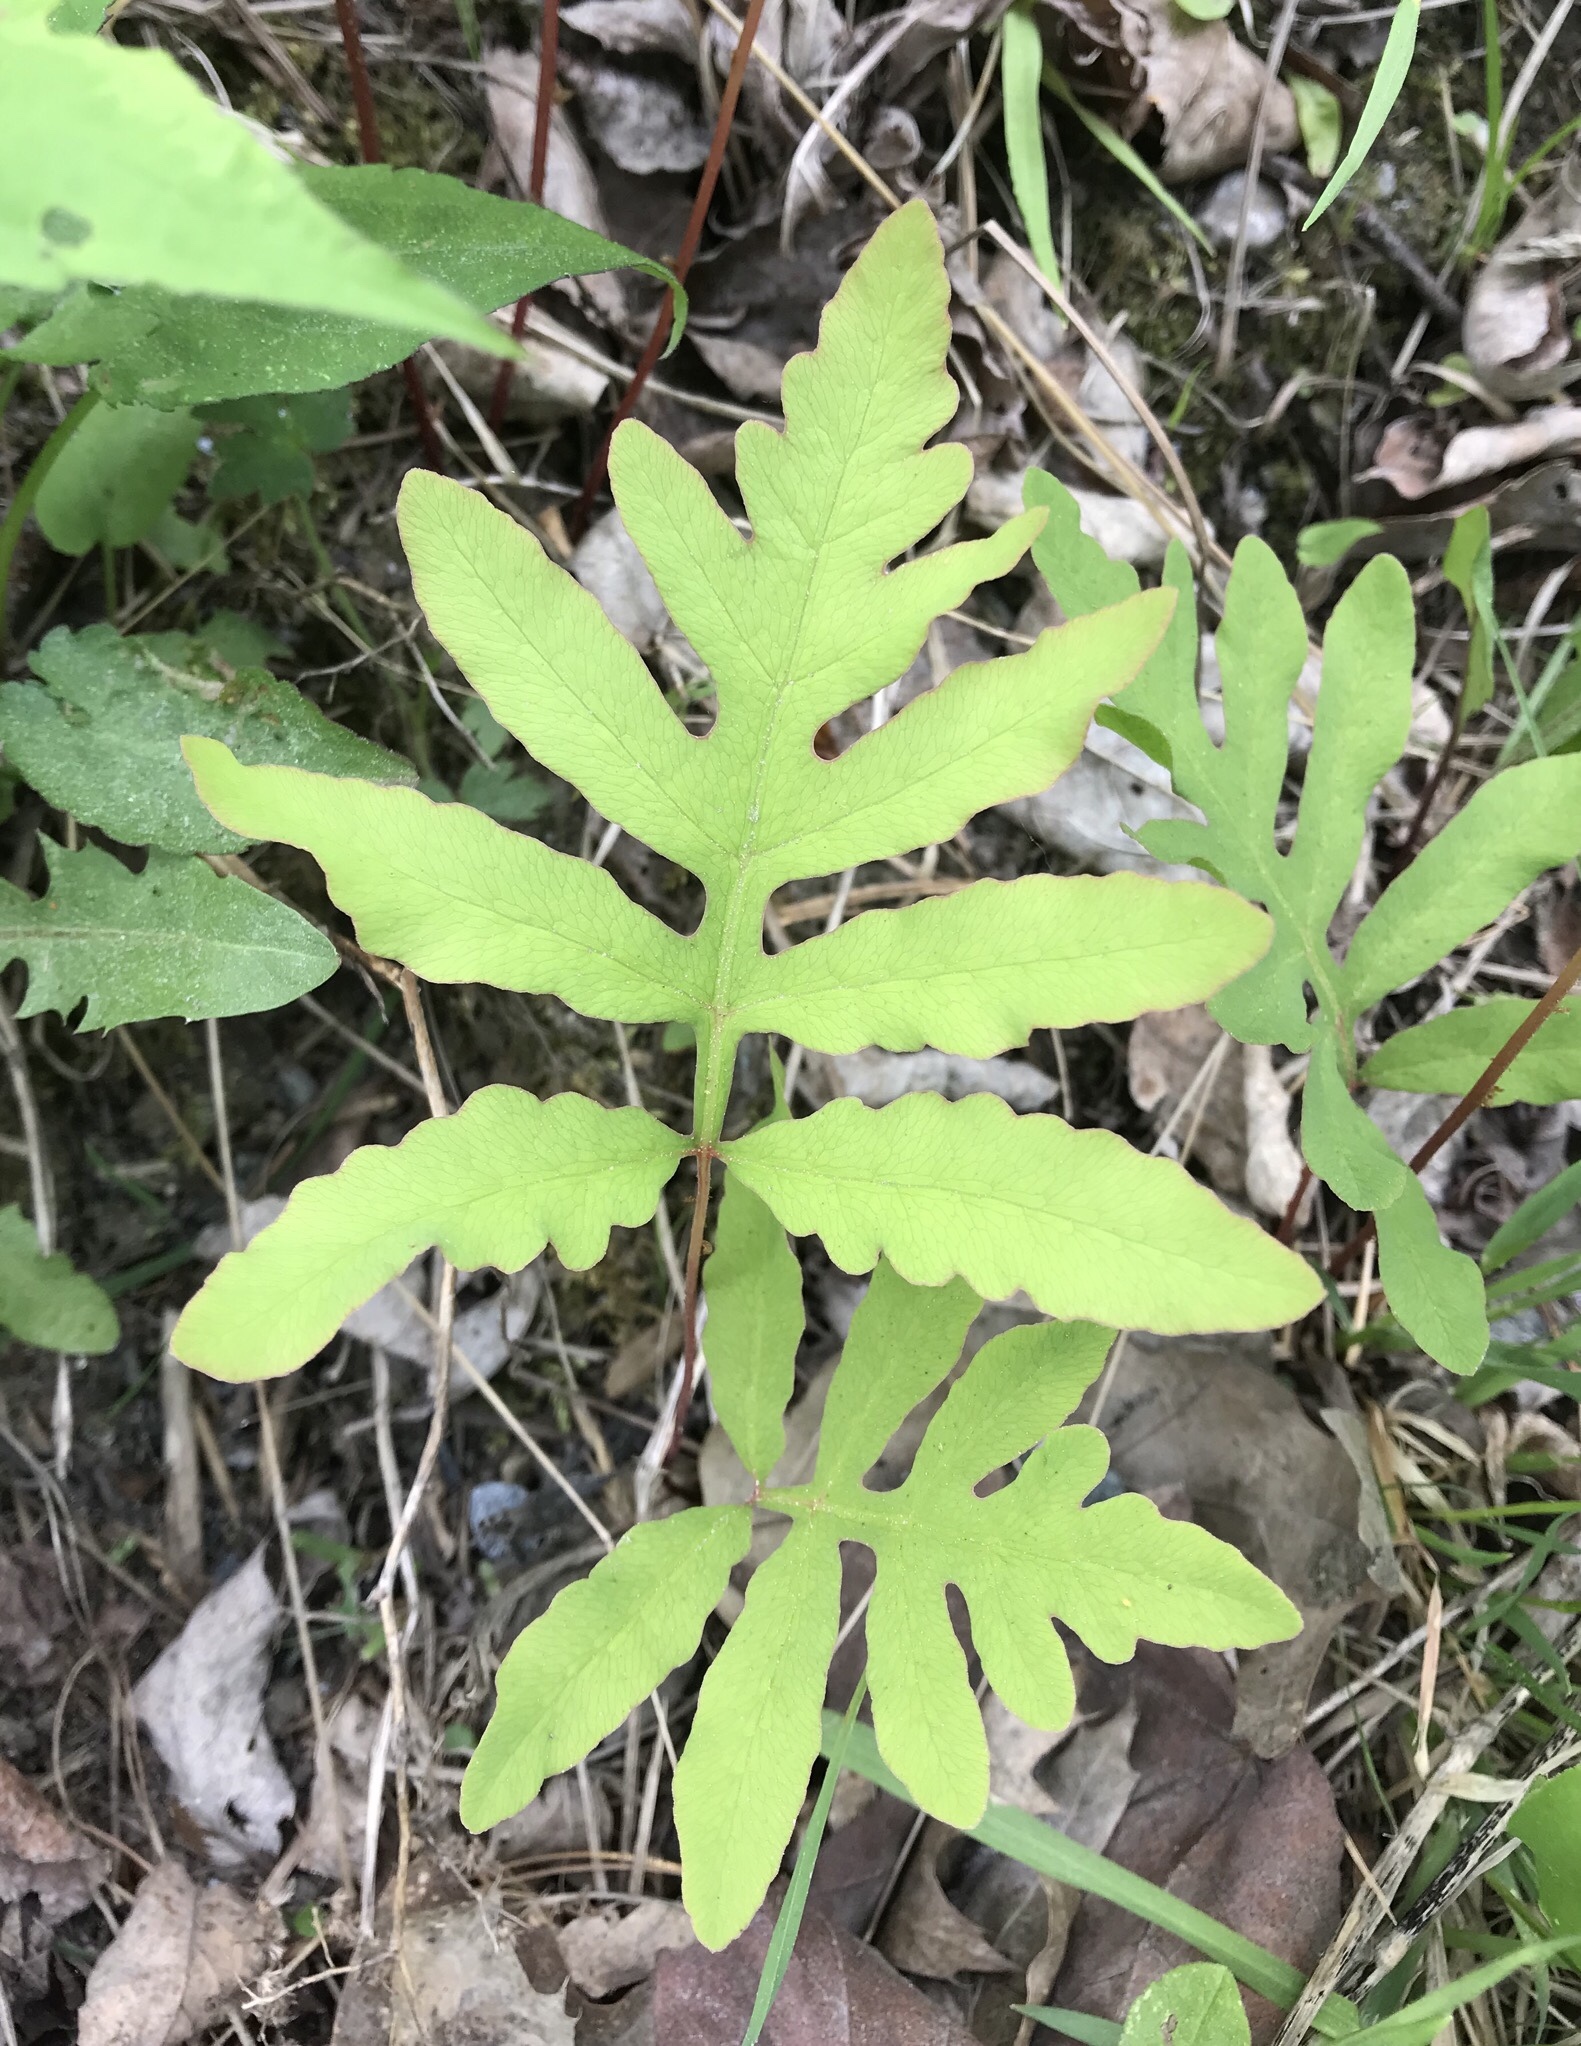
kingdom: Plantae
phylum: Tracheophyta
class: Polypodiopsida
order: Polypodiales
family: Onocleaceae
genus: Onoclea
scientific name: Onoclea sensibilis
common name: Sensitive fern
